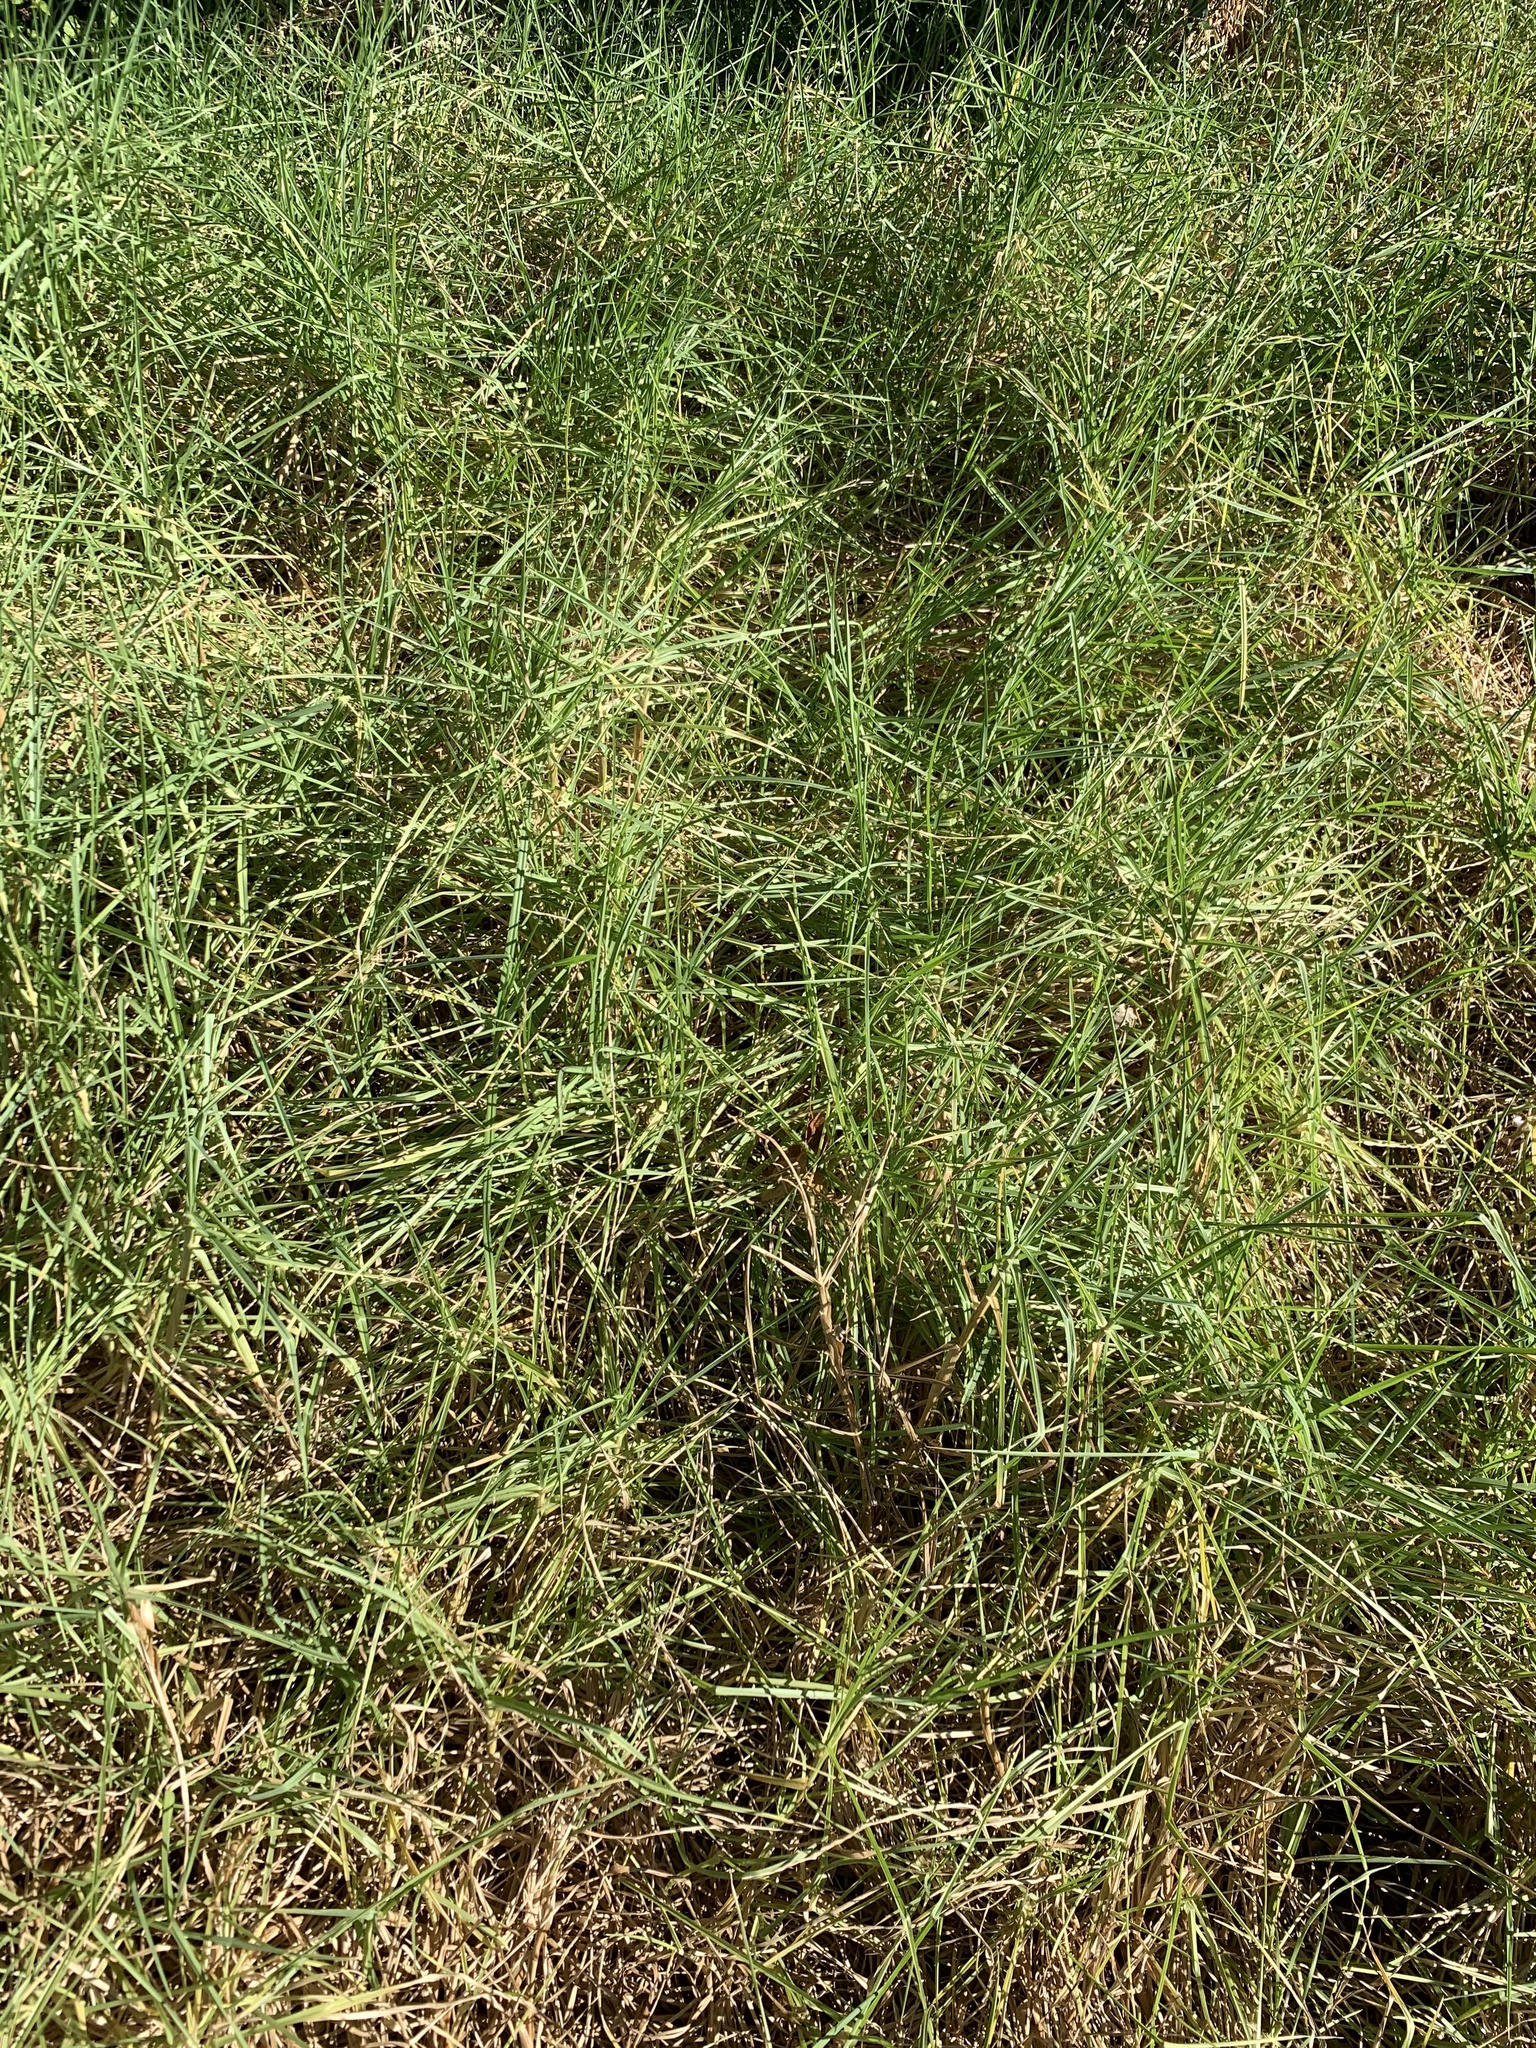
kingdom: Plantae
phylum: Tracheophyta
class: Liliopsida
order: Poales
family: Poaceae
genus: Cenchrus
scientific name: Cenchrus clandestinus
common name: Kikuyugrass
